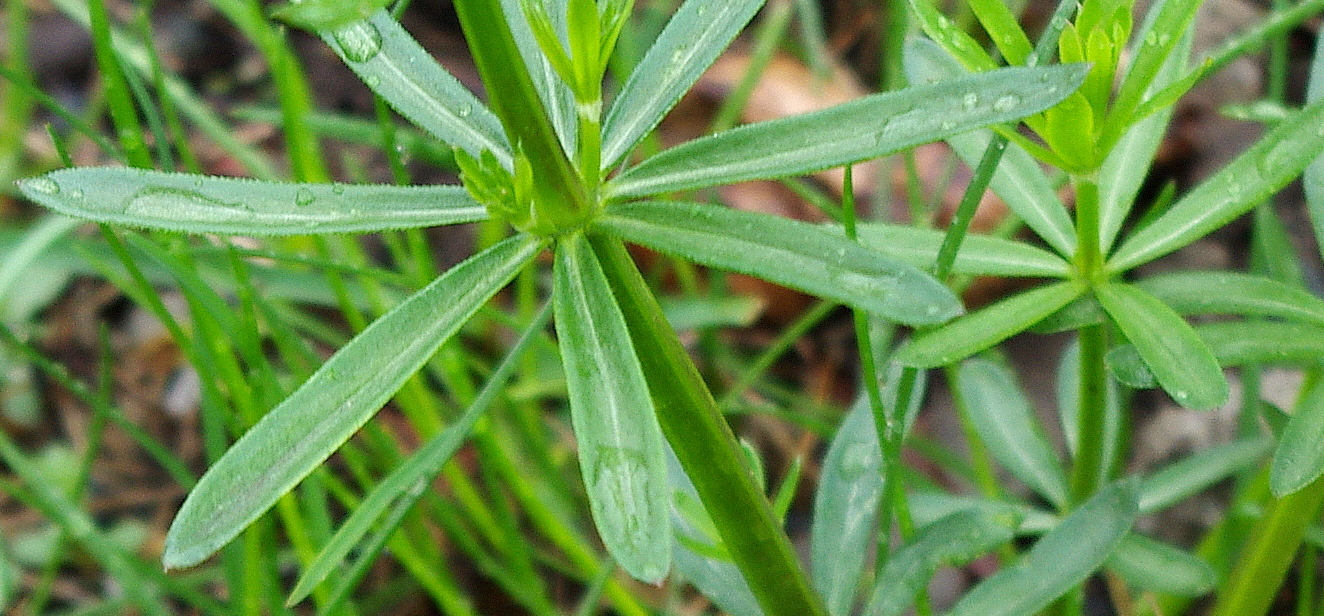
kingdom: Plantae
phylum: Tracheophyta
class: Magnoliopsida
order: Gentianales
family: Rubiaceae
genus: Galium
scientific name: Galium mollugo
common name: Hedge bedstraw
